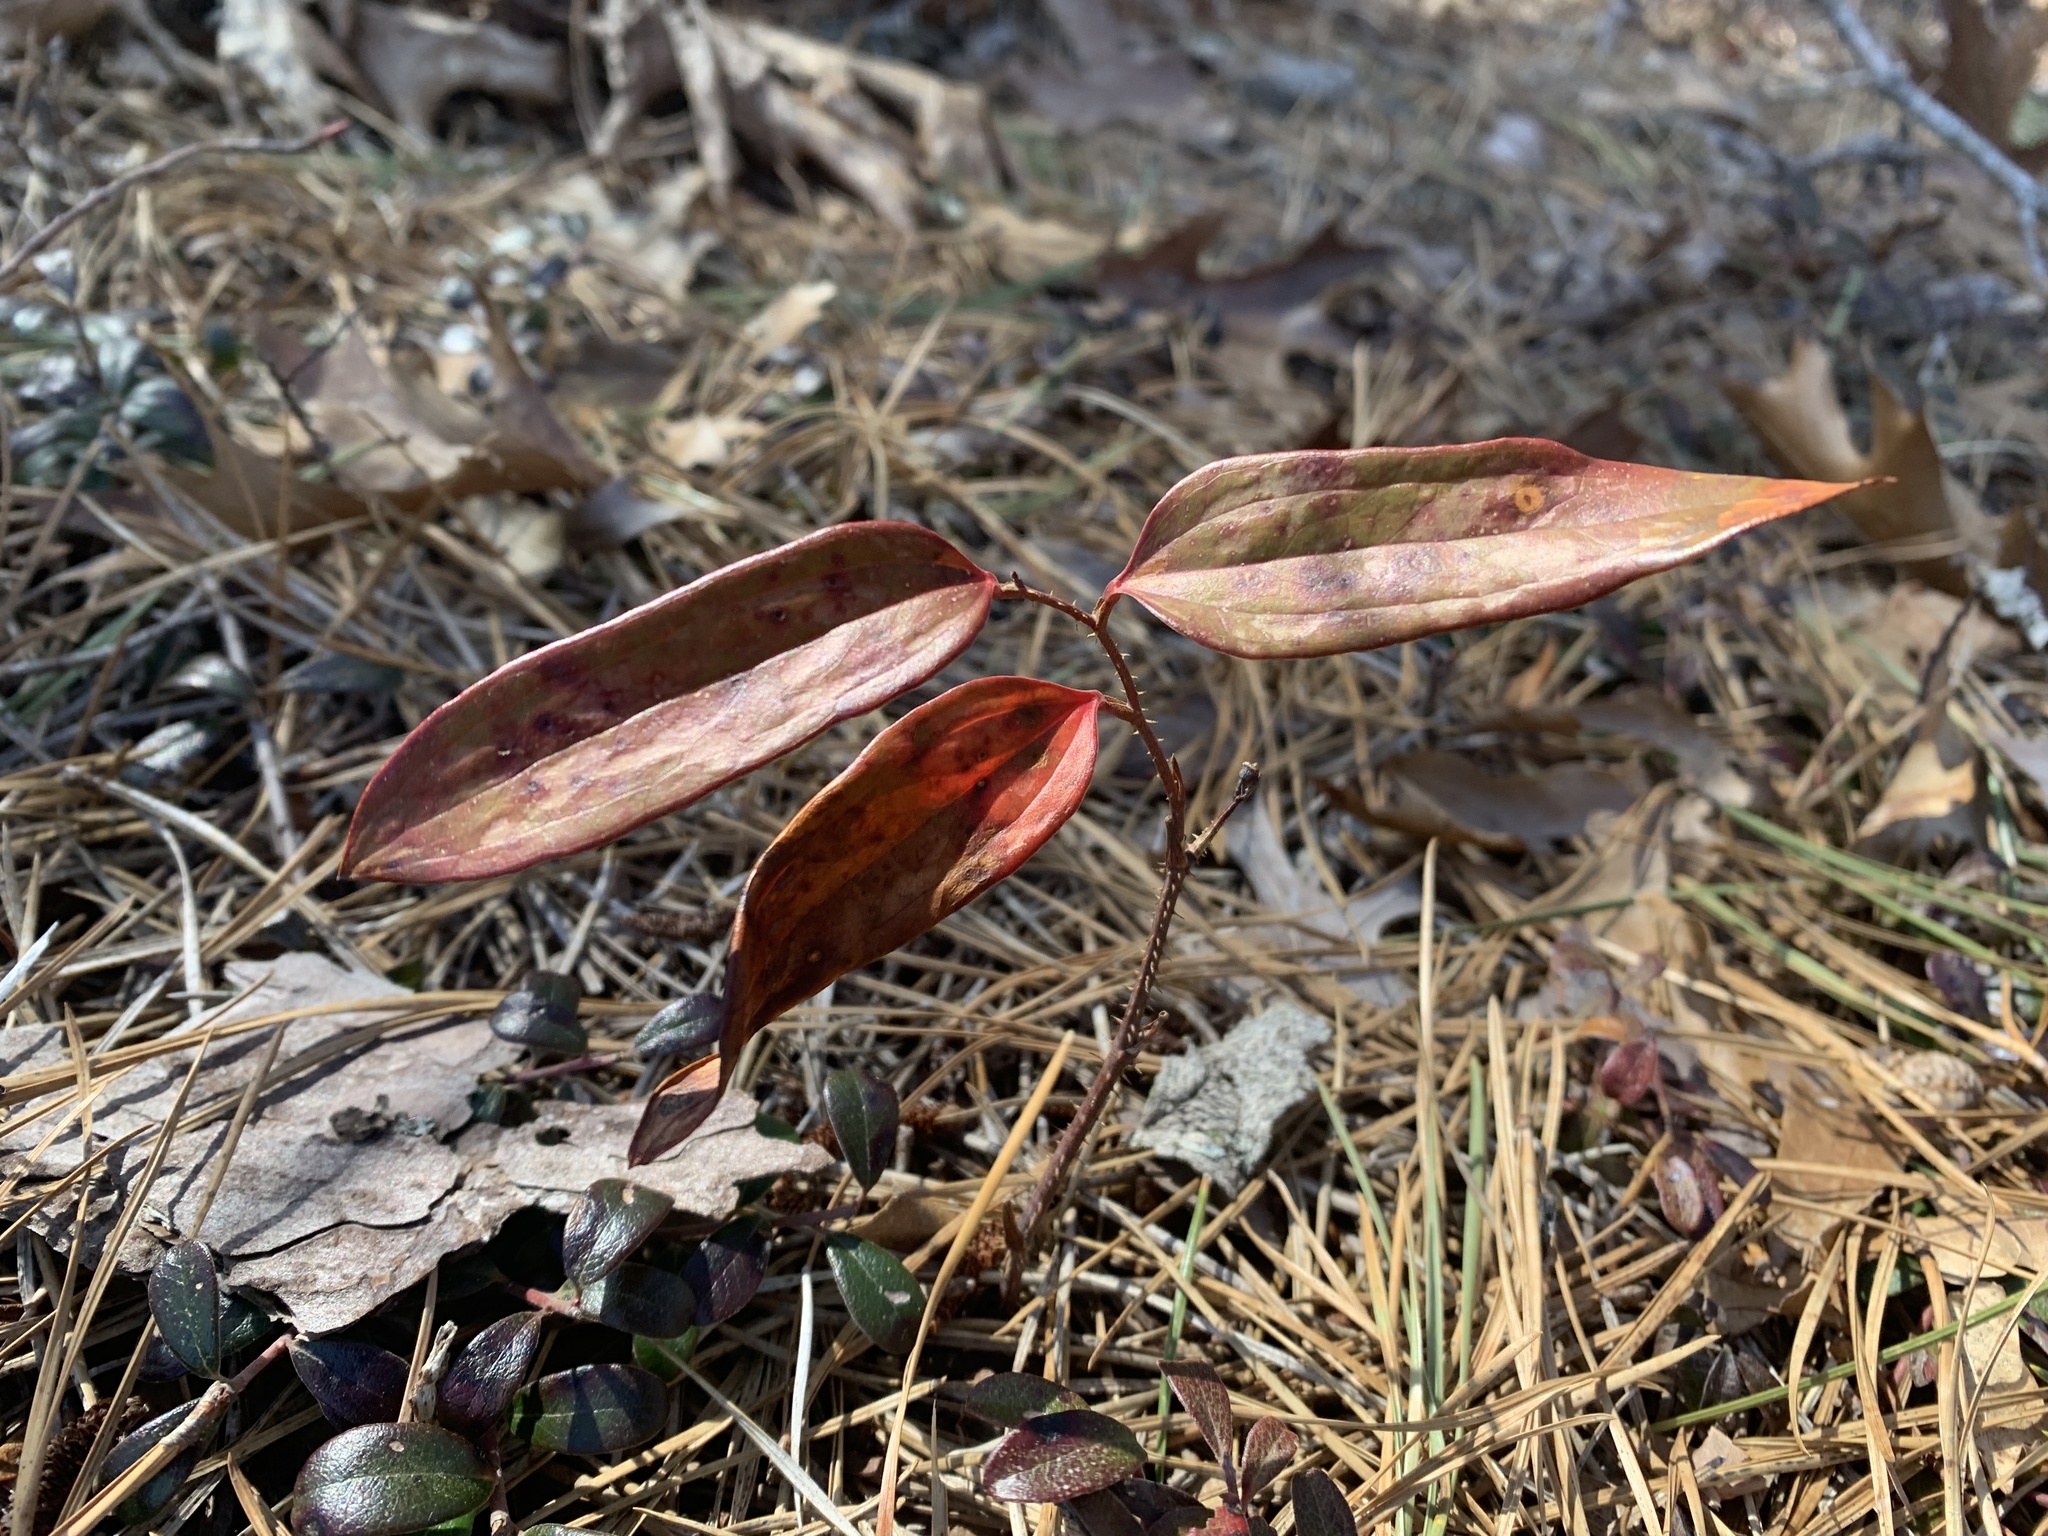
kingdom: Plantae
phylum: Tracheophyta
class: Liliopsida
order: Liliales
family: Smilacaceae
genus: Smilax
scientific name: Smilax glauca
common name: Cat greenbrier
